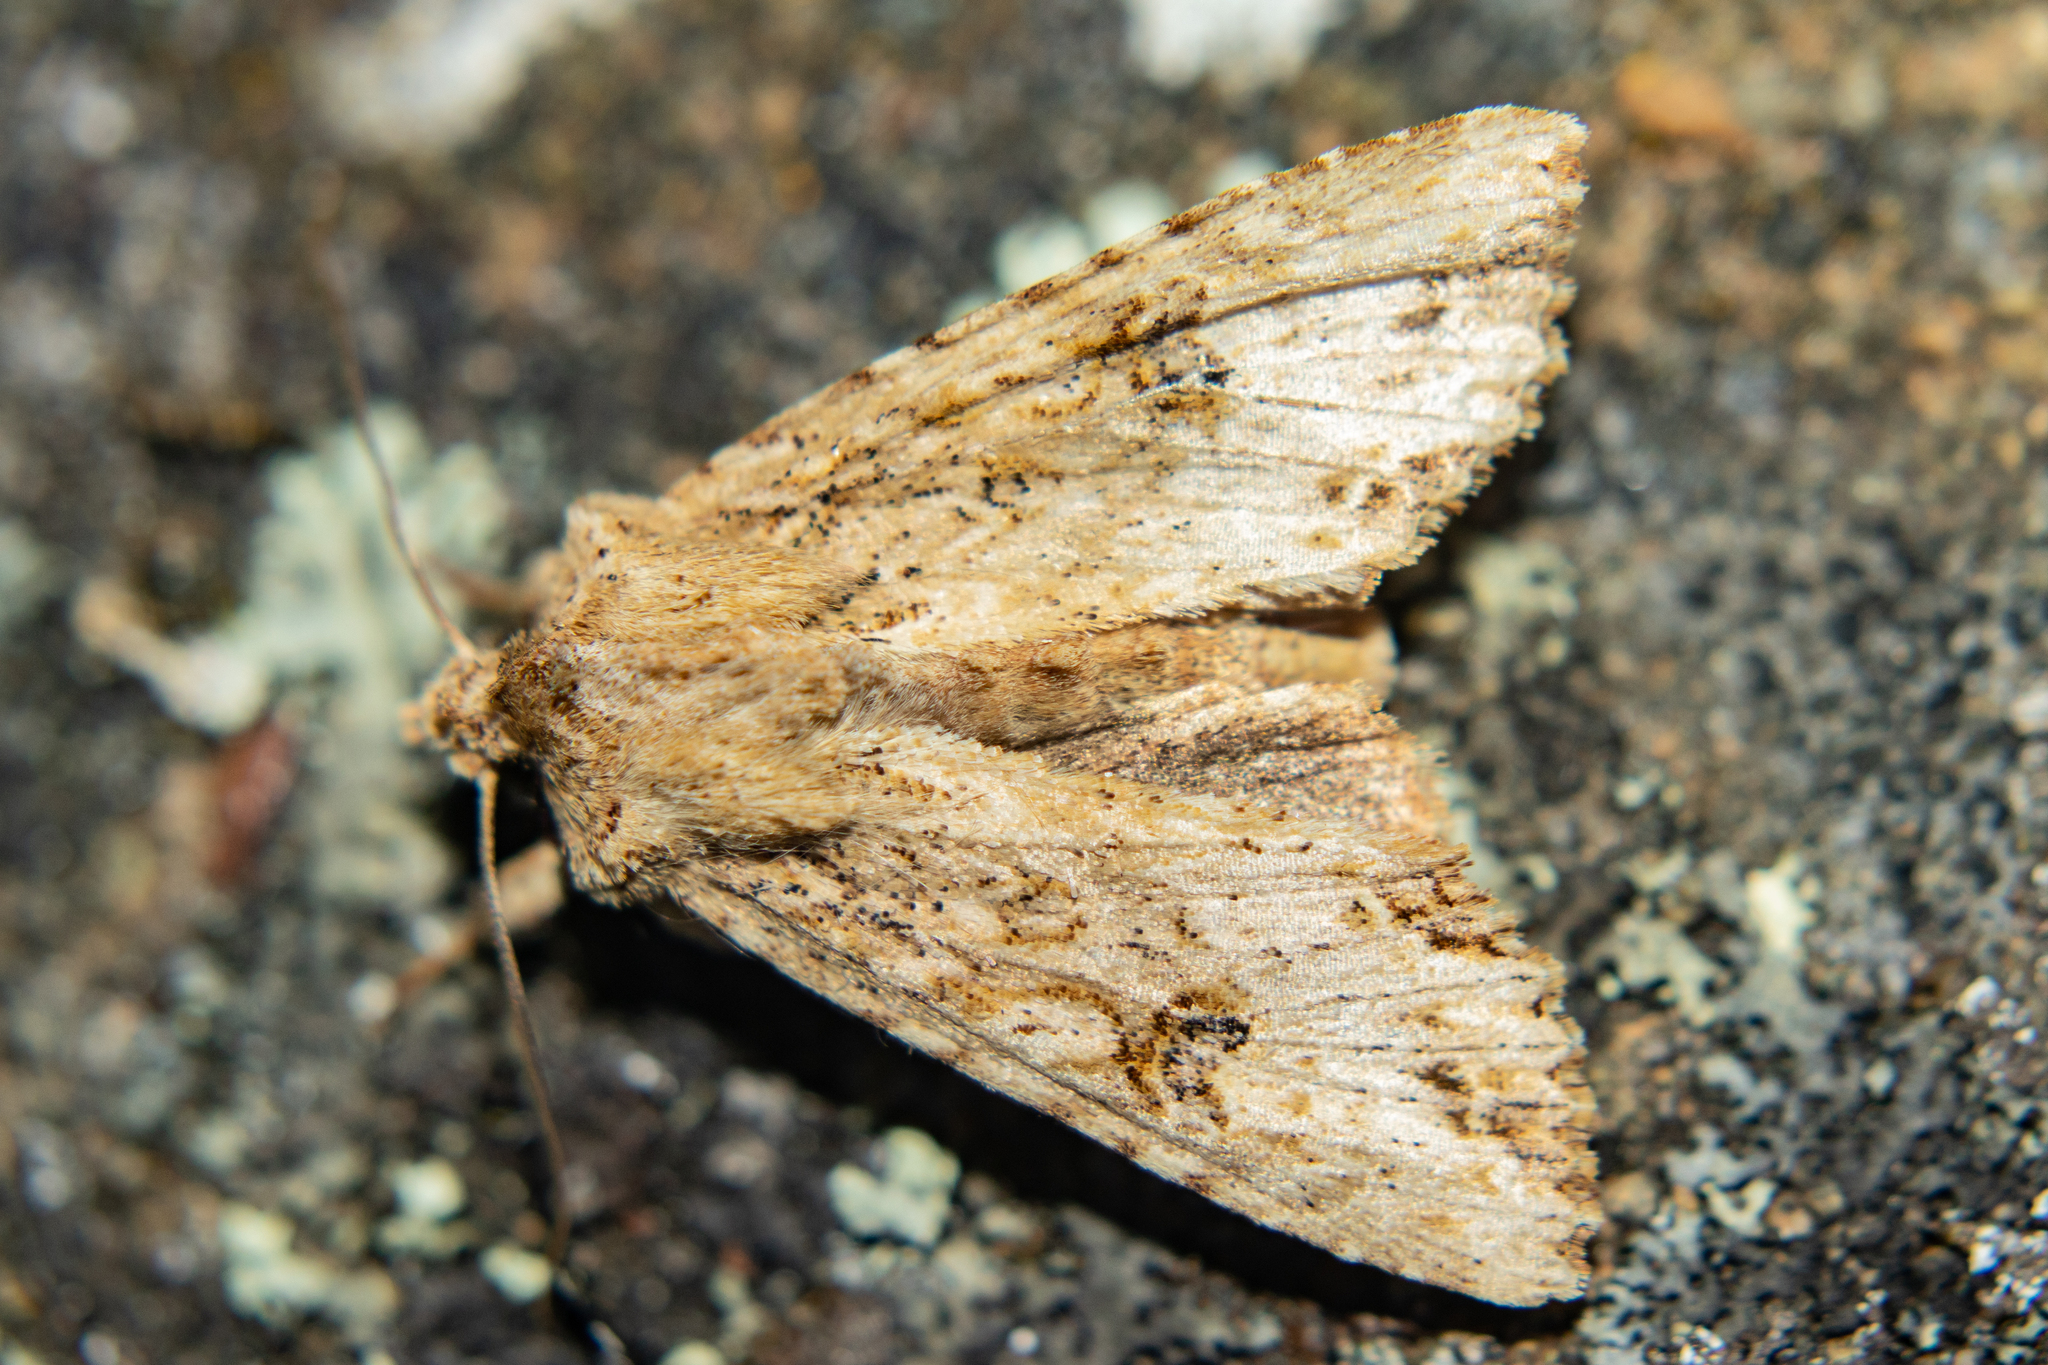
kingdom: Animalia
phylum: Arthropoda
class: Insecta
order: Lepidoptera
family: Noctuidae
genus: Meterana
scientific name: Meterana pascoei
